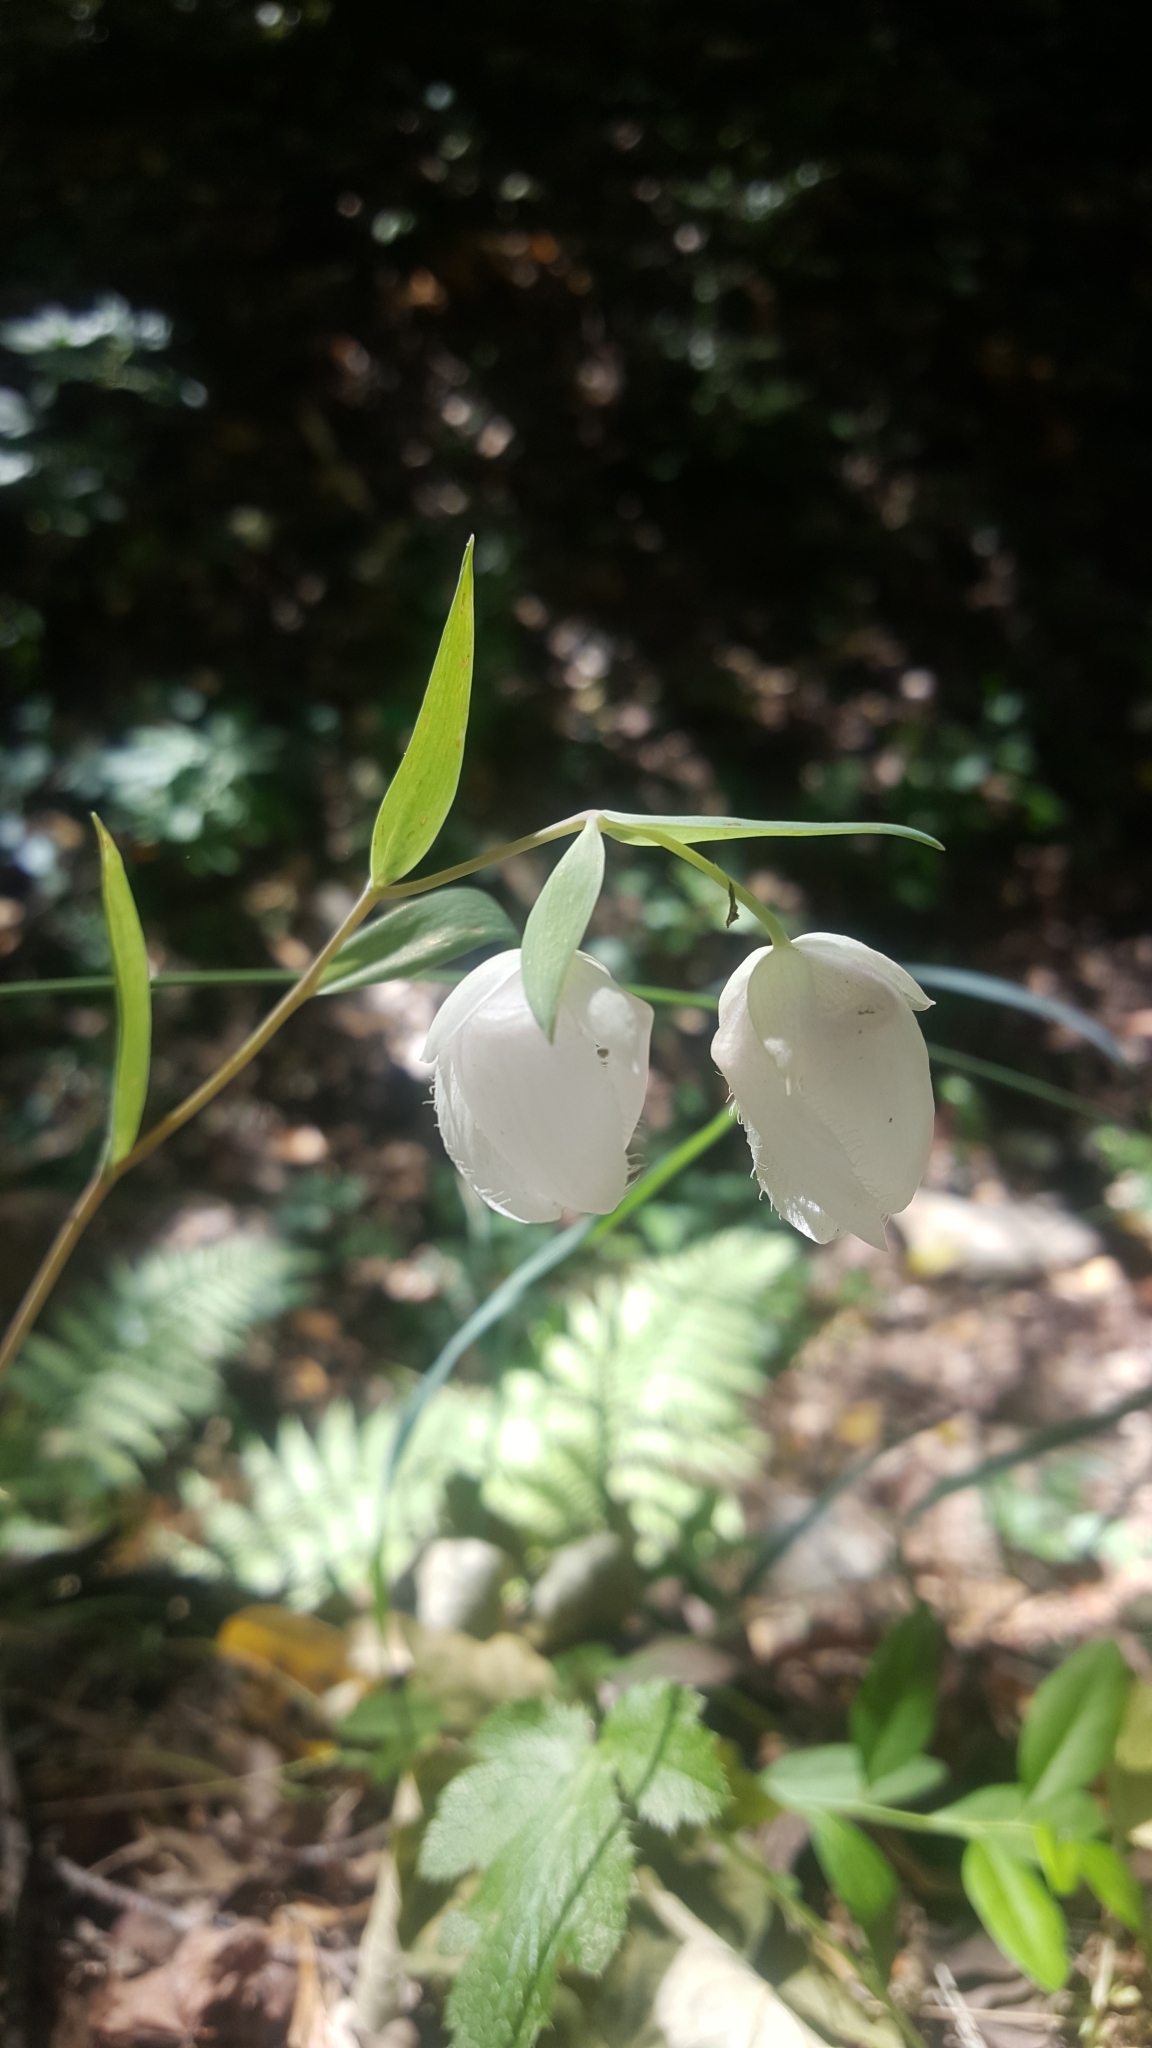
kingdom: Plantae
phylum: Tracheophyta
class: Liliopsida
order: Liliales
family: Liliaceae
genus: Calochortus
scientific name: Calochortus albus
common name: Fairy-lantern
